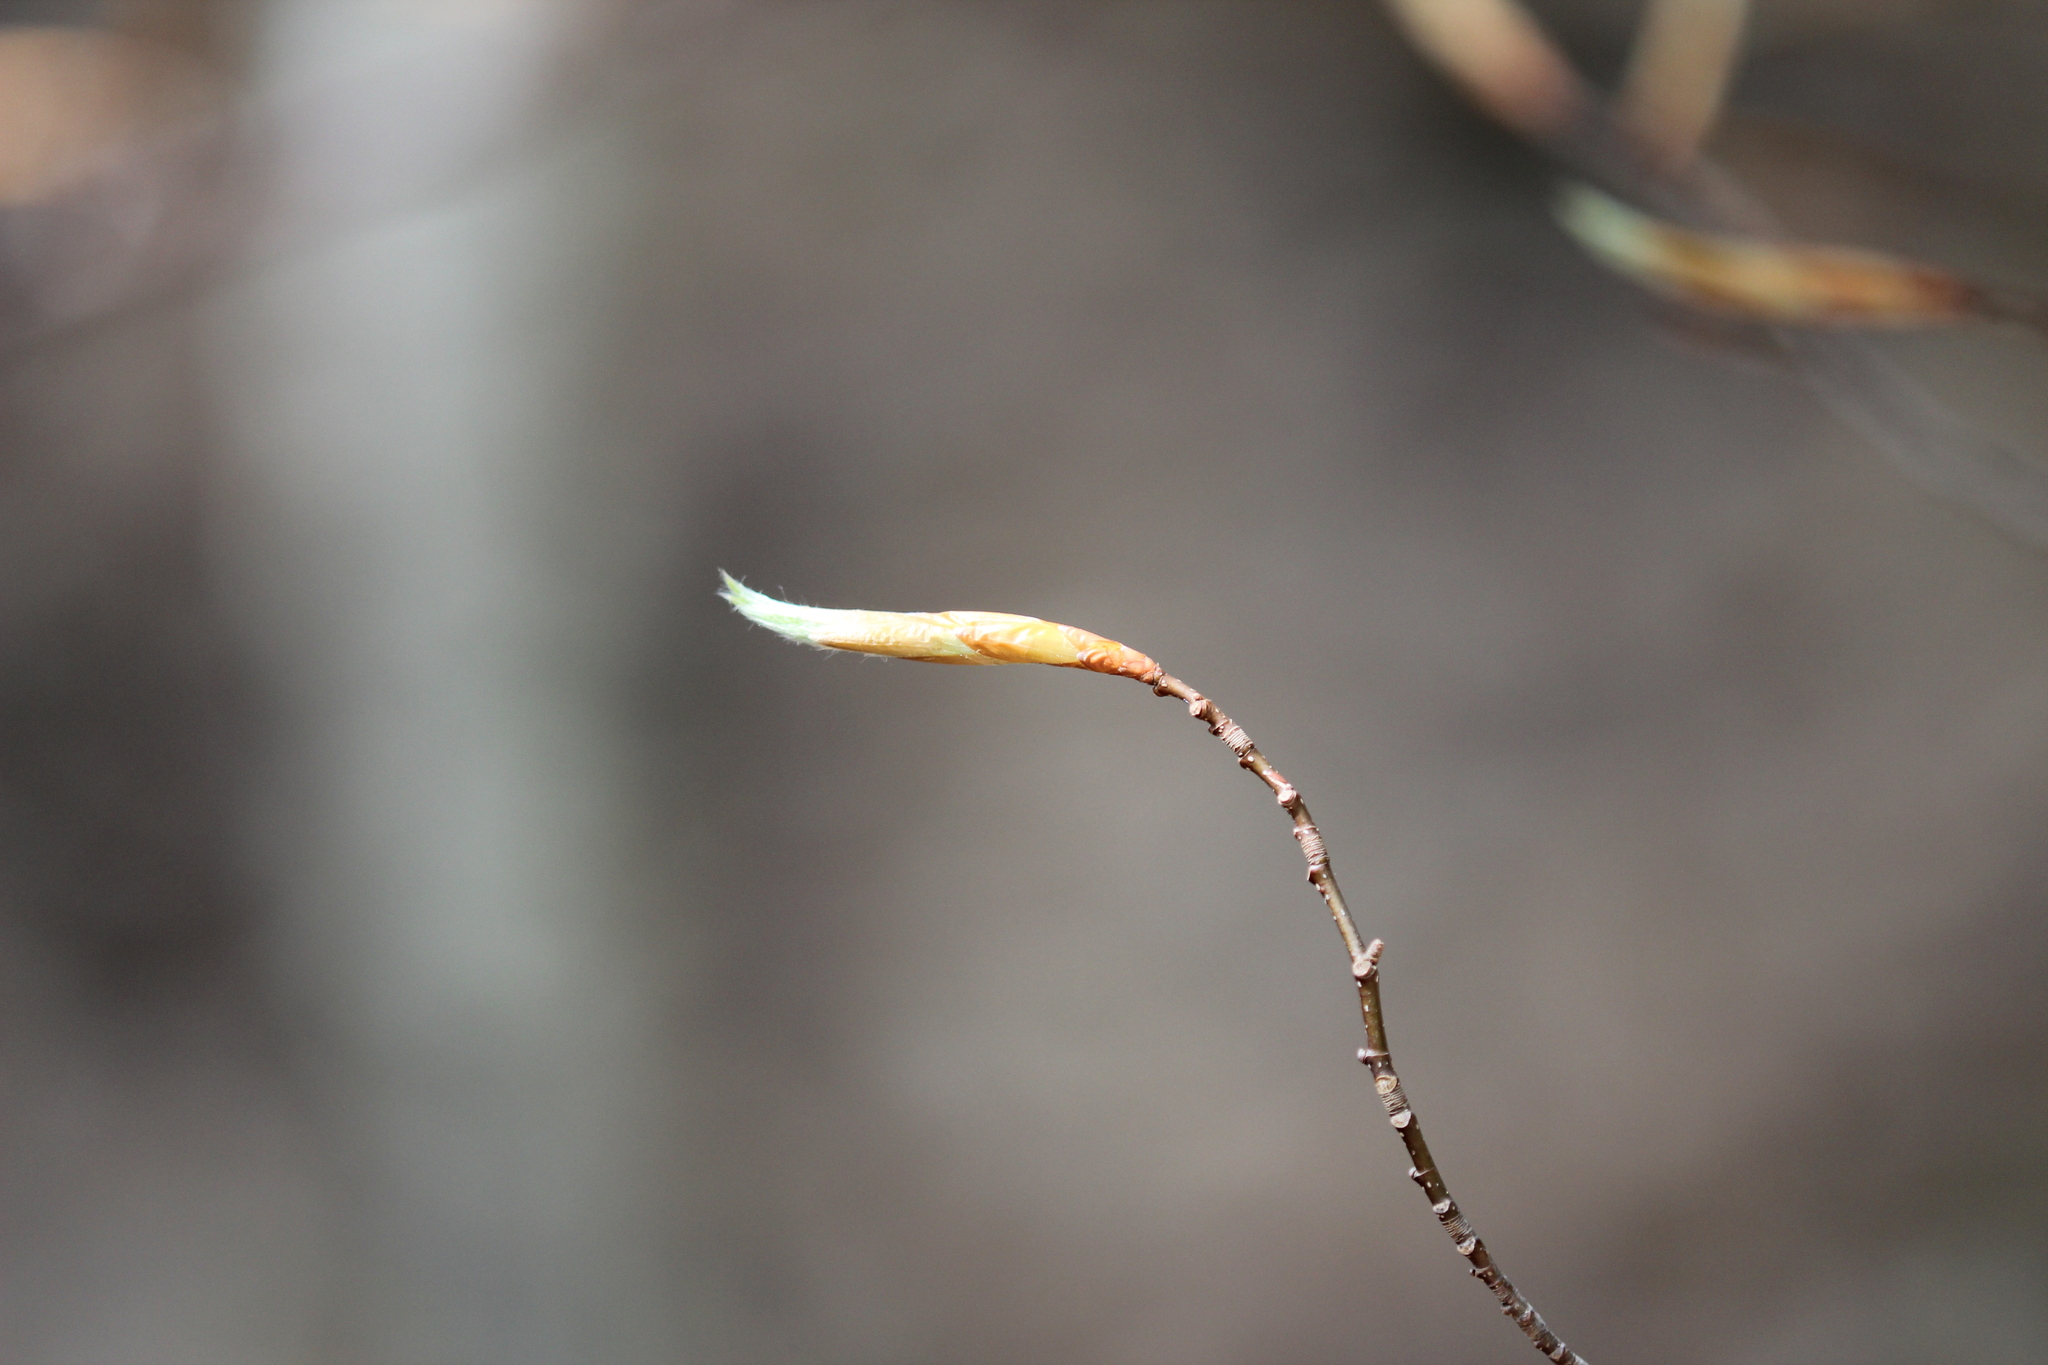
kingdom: Plantae
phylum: Tracheophyta
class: Magnoliopsida
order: Fagales
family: Fagaceae
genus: Fagus
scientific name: Fagus grandifolia
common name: American beech
